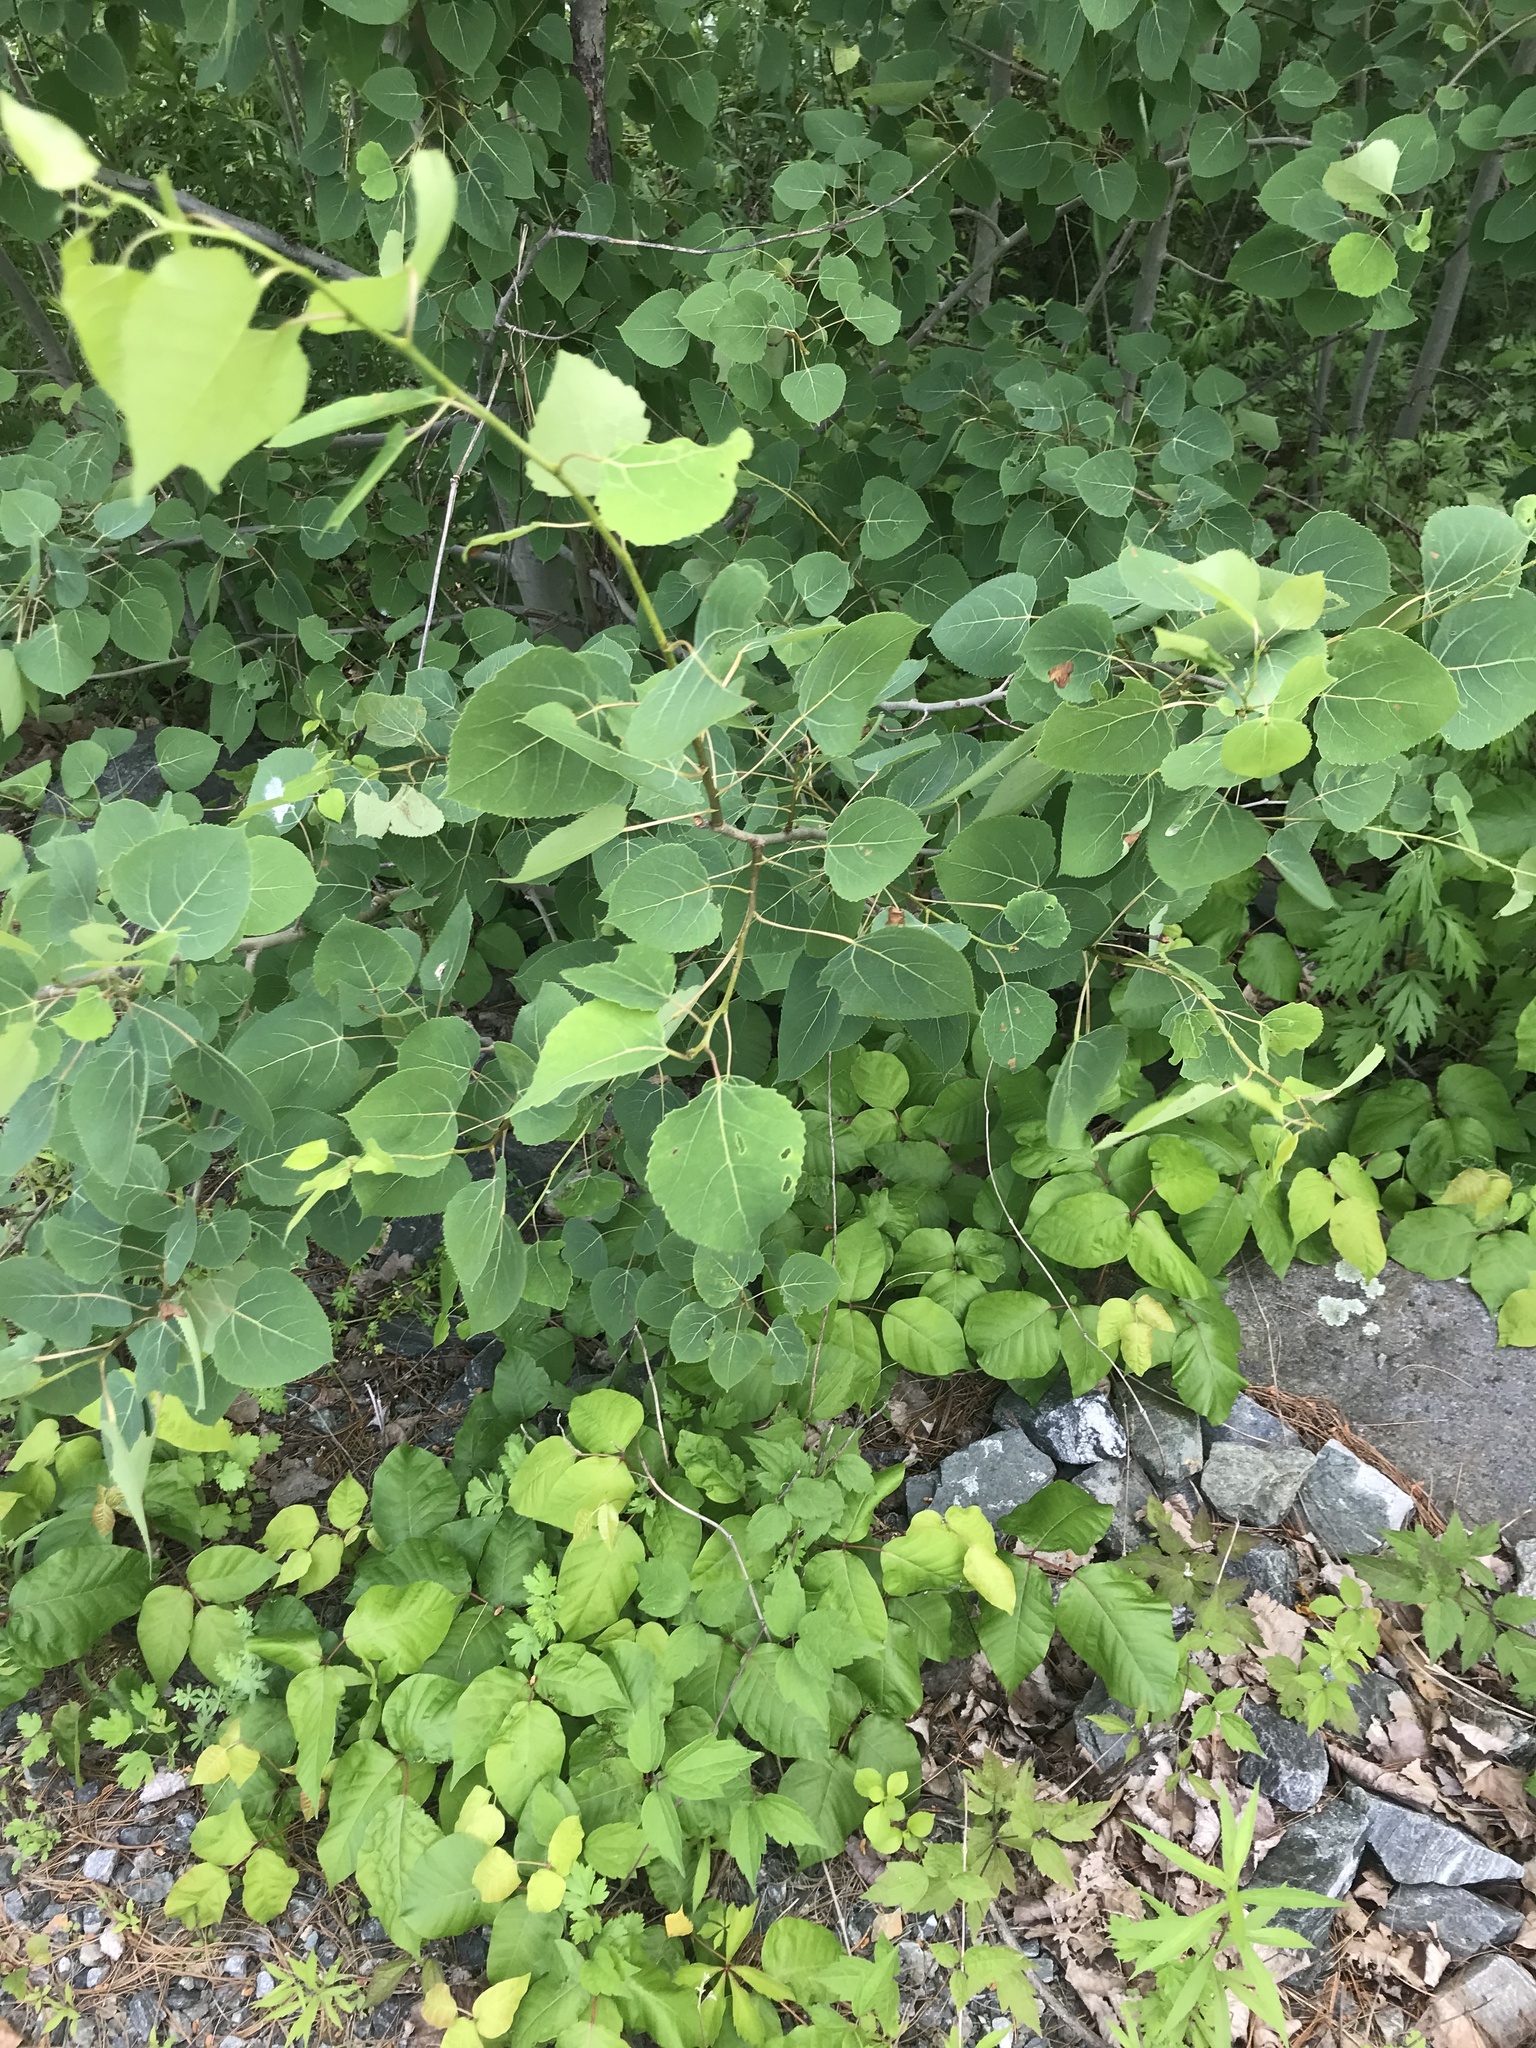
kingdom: Plantae
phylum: Tracheophyta
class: Magnoliopsida
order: Malpighiales
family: Salicaceae
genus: Populus
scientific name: Populus tremuloides
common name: Quaking aspen
